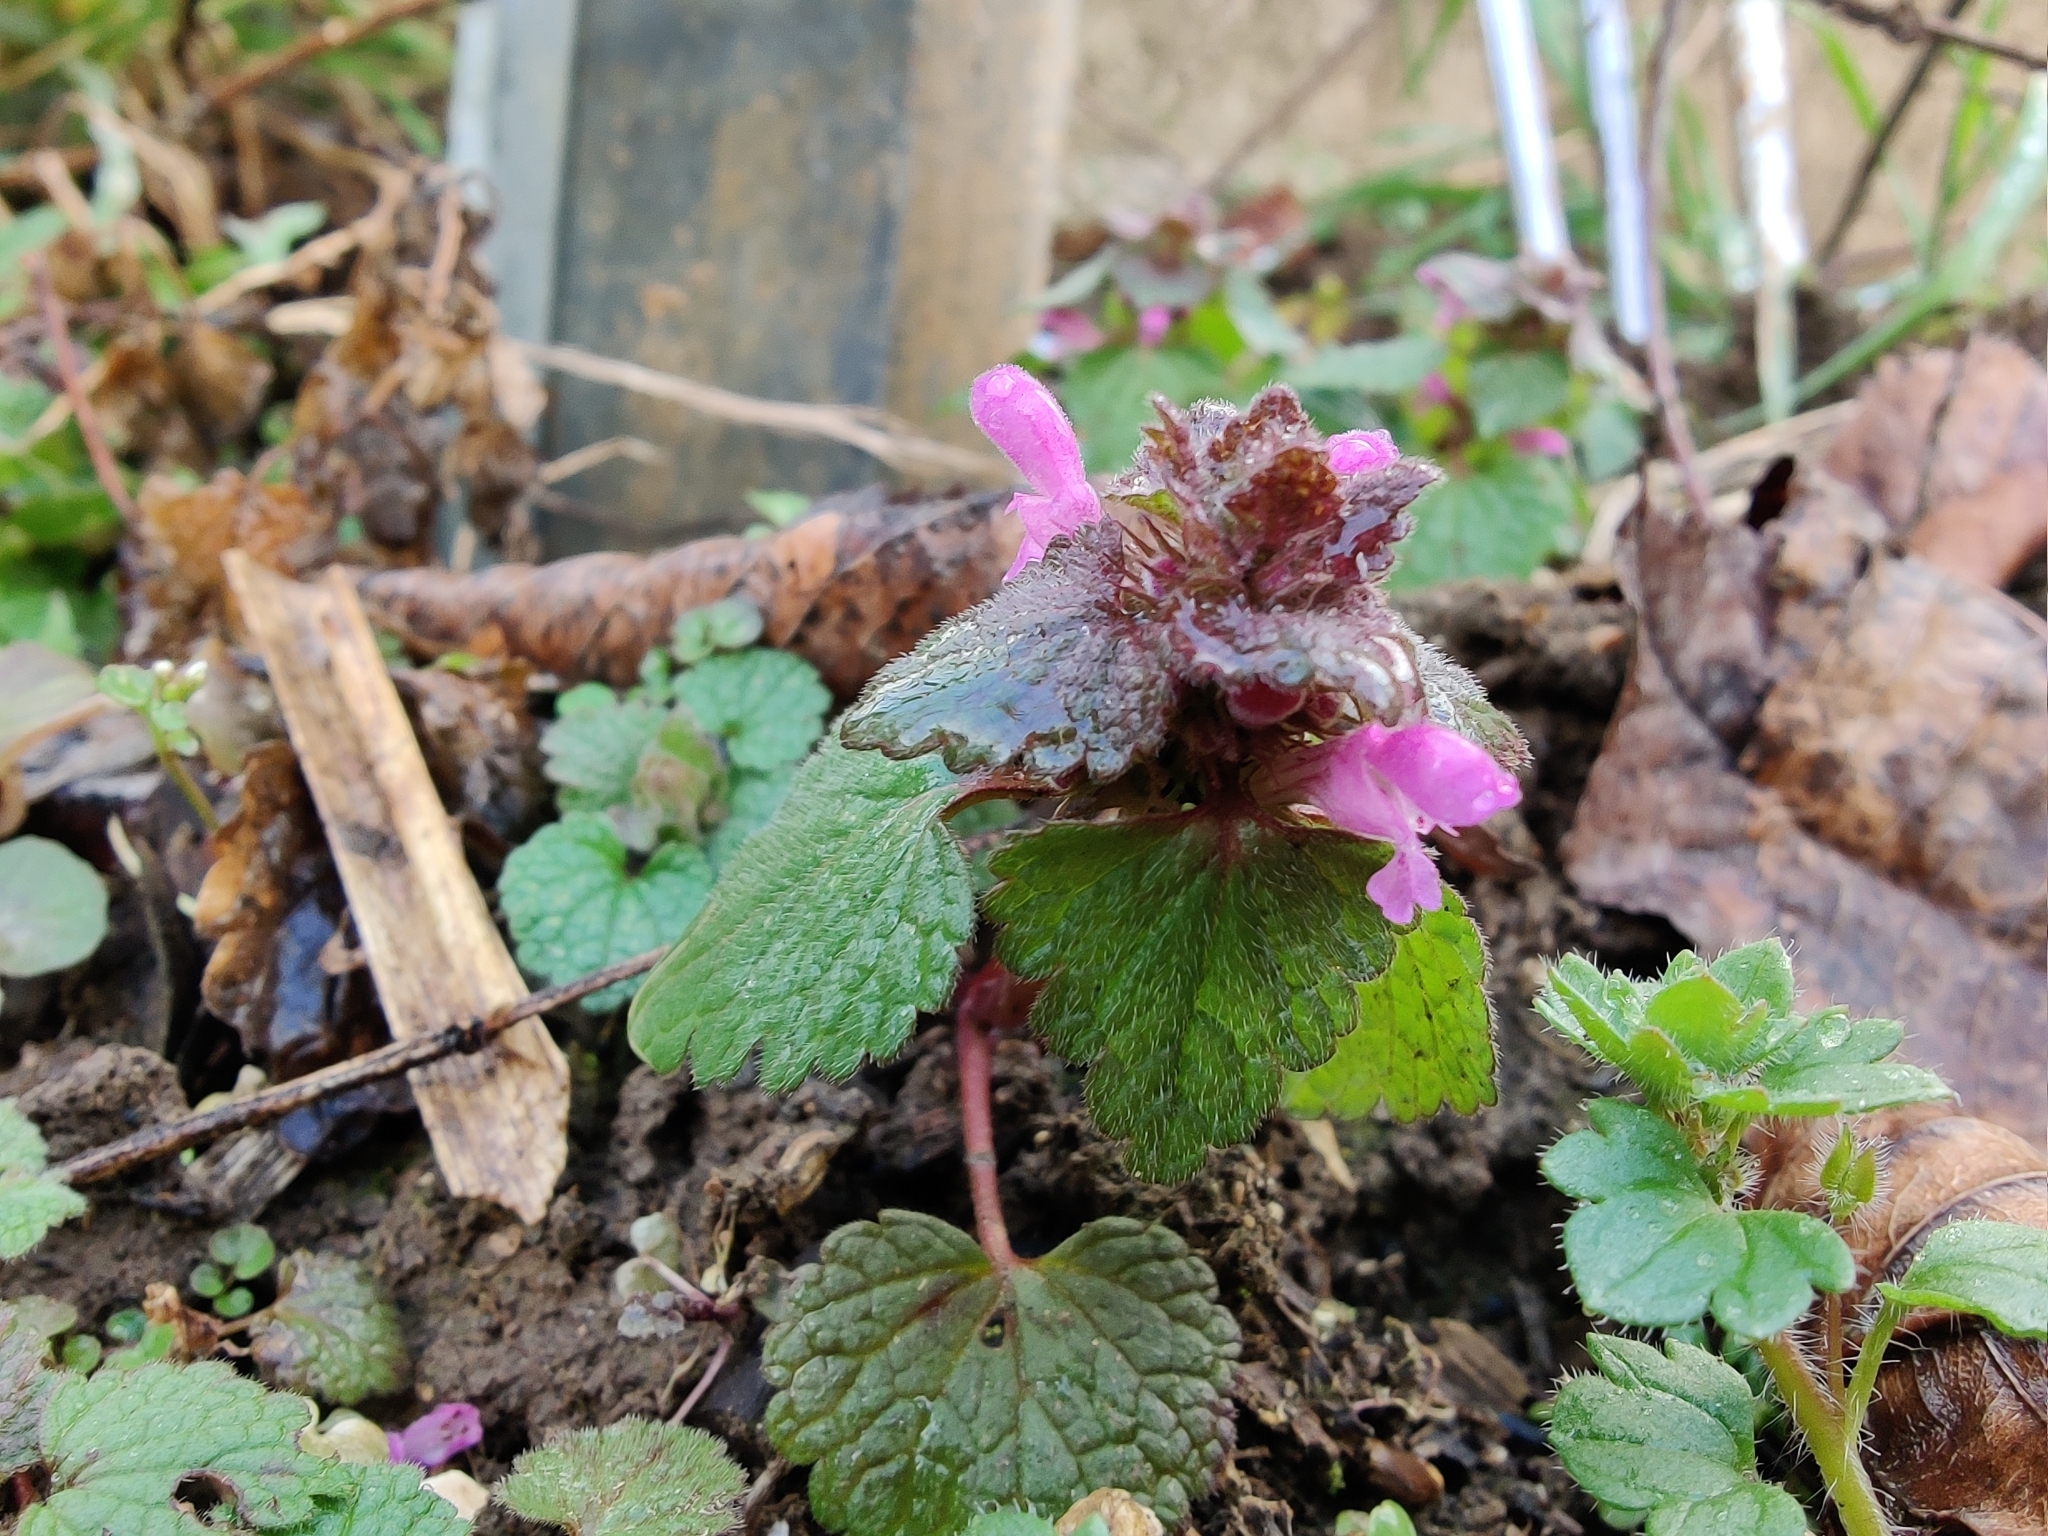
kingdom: Plantae
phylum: Tracheophyta
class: Magnoliopsida
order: Lamiales
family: Lamiaceae
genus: Lamium
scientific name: Lamium purpureum
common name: Red dead-nettle
